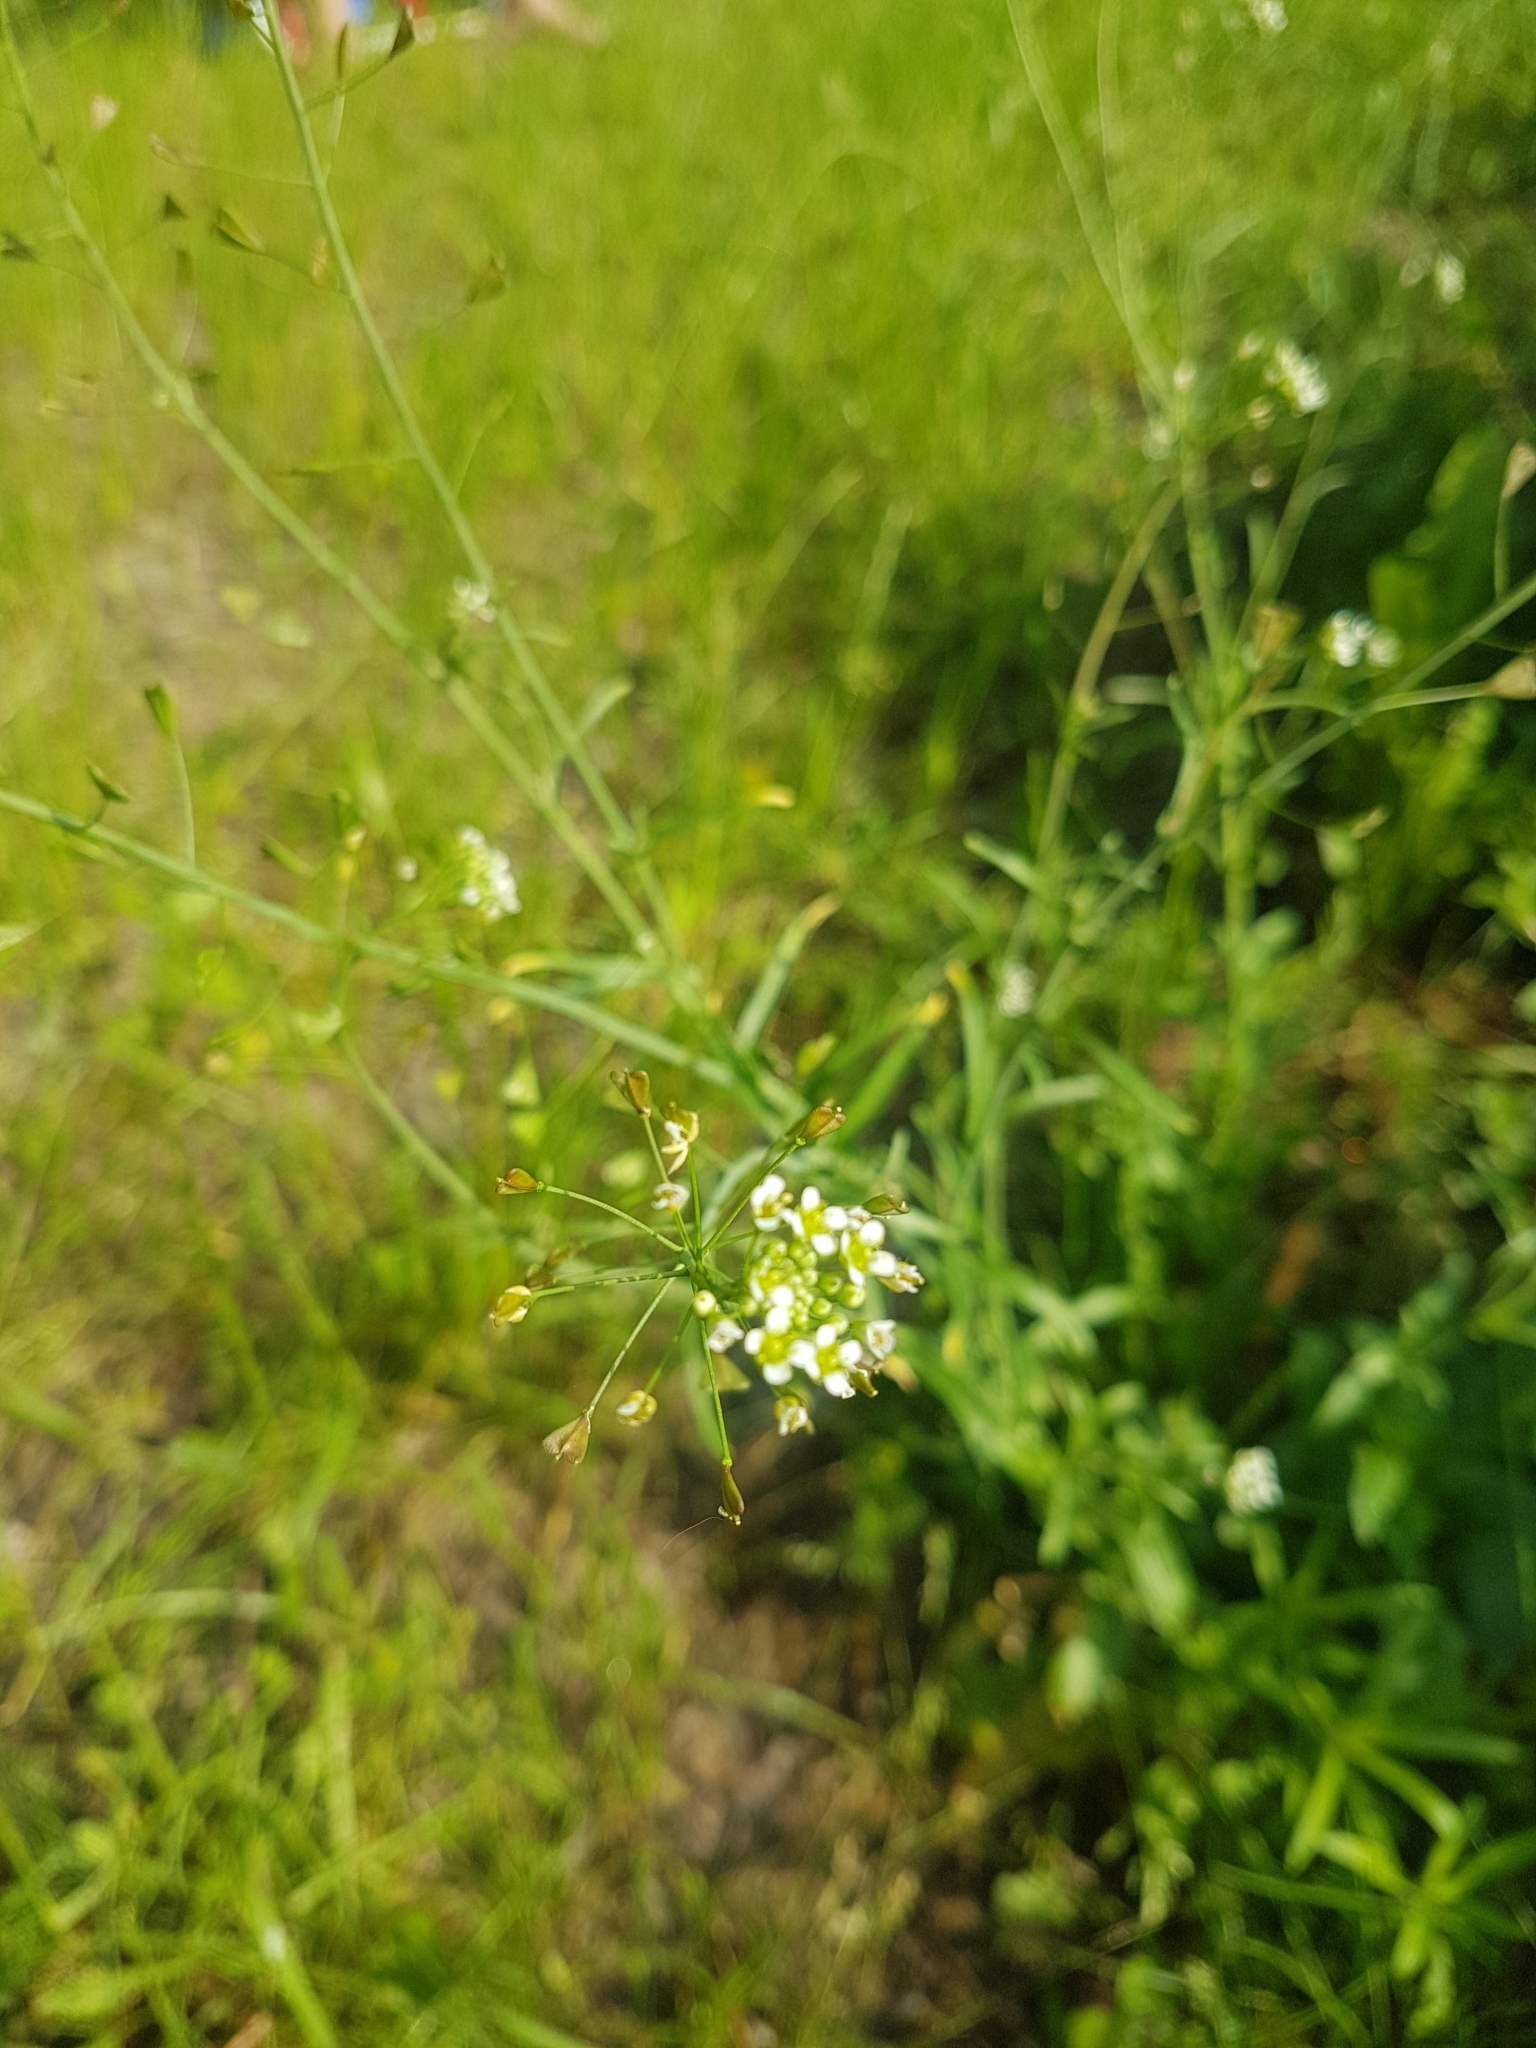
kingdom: Plantae
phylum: Tracheophyta
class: Magnoliopsida
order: Brassicales
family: Brassicaceae
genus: Capsella
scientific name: Capsella bursa-pastoris
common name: Shepherd's purse
